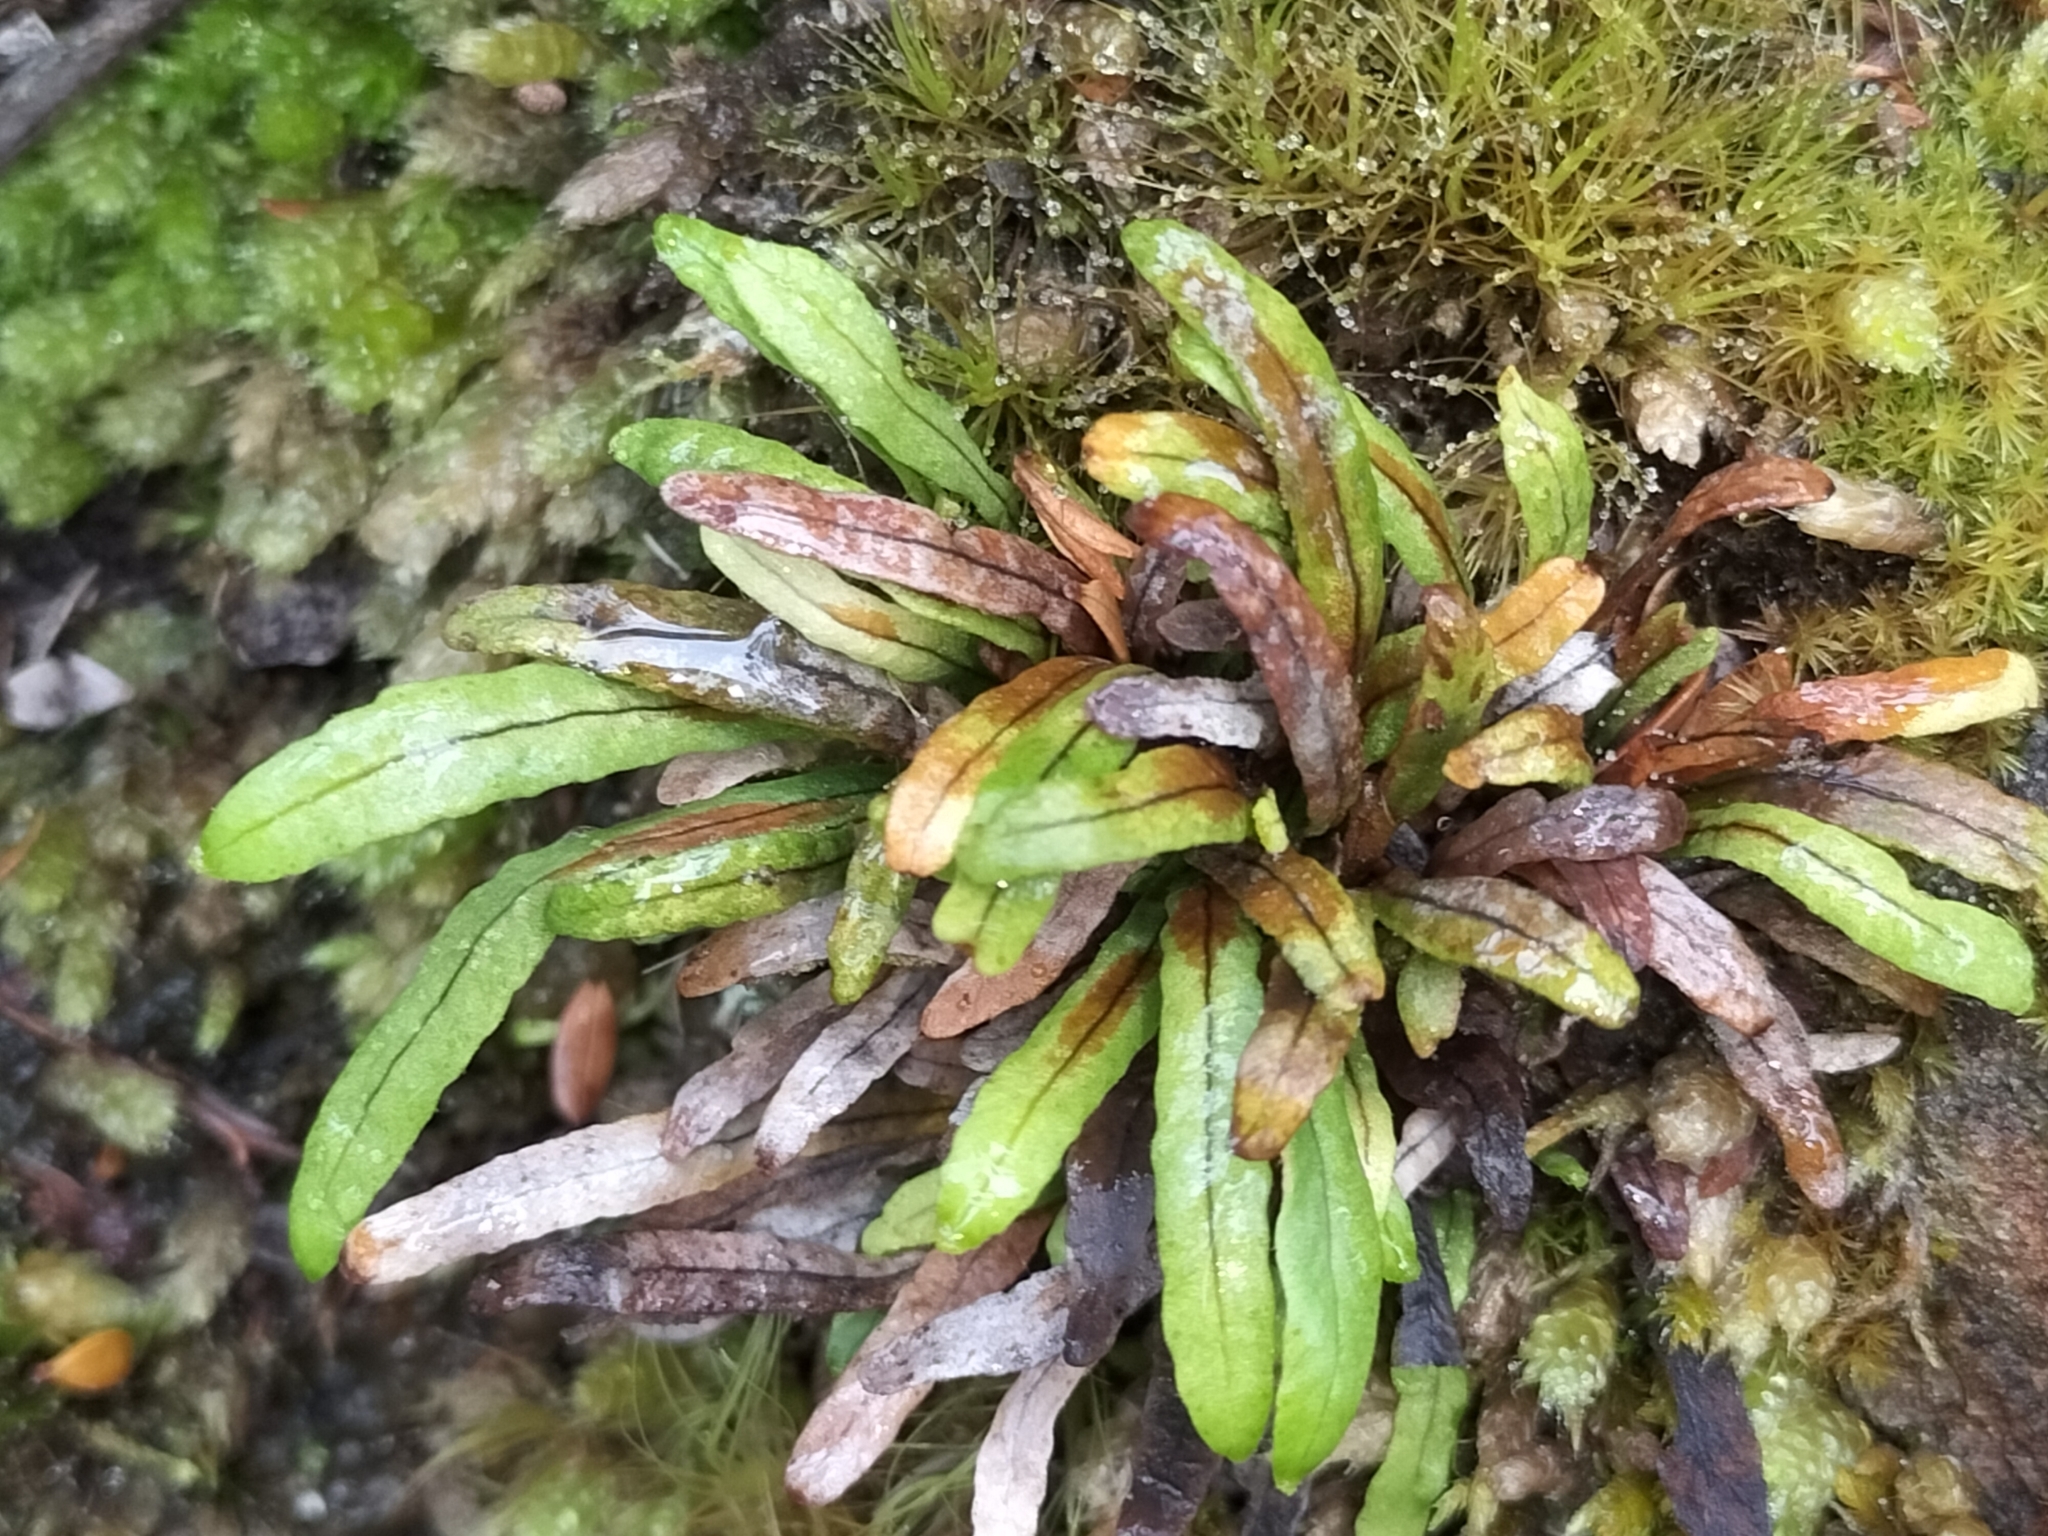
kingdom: Plantae
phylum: Tracheophyta
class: Polypodiopsida
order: Polypodiales
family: Polypodiaceae
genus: Notogrammitis
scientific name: Notogrammitis billardierei
